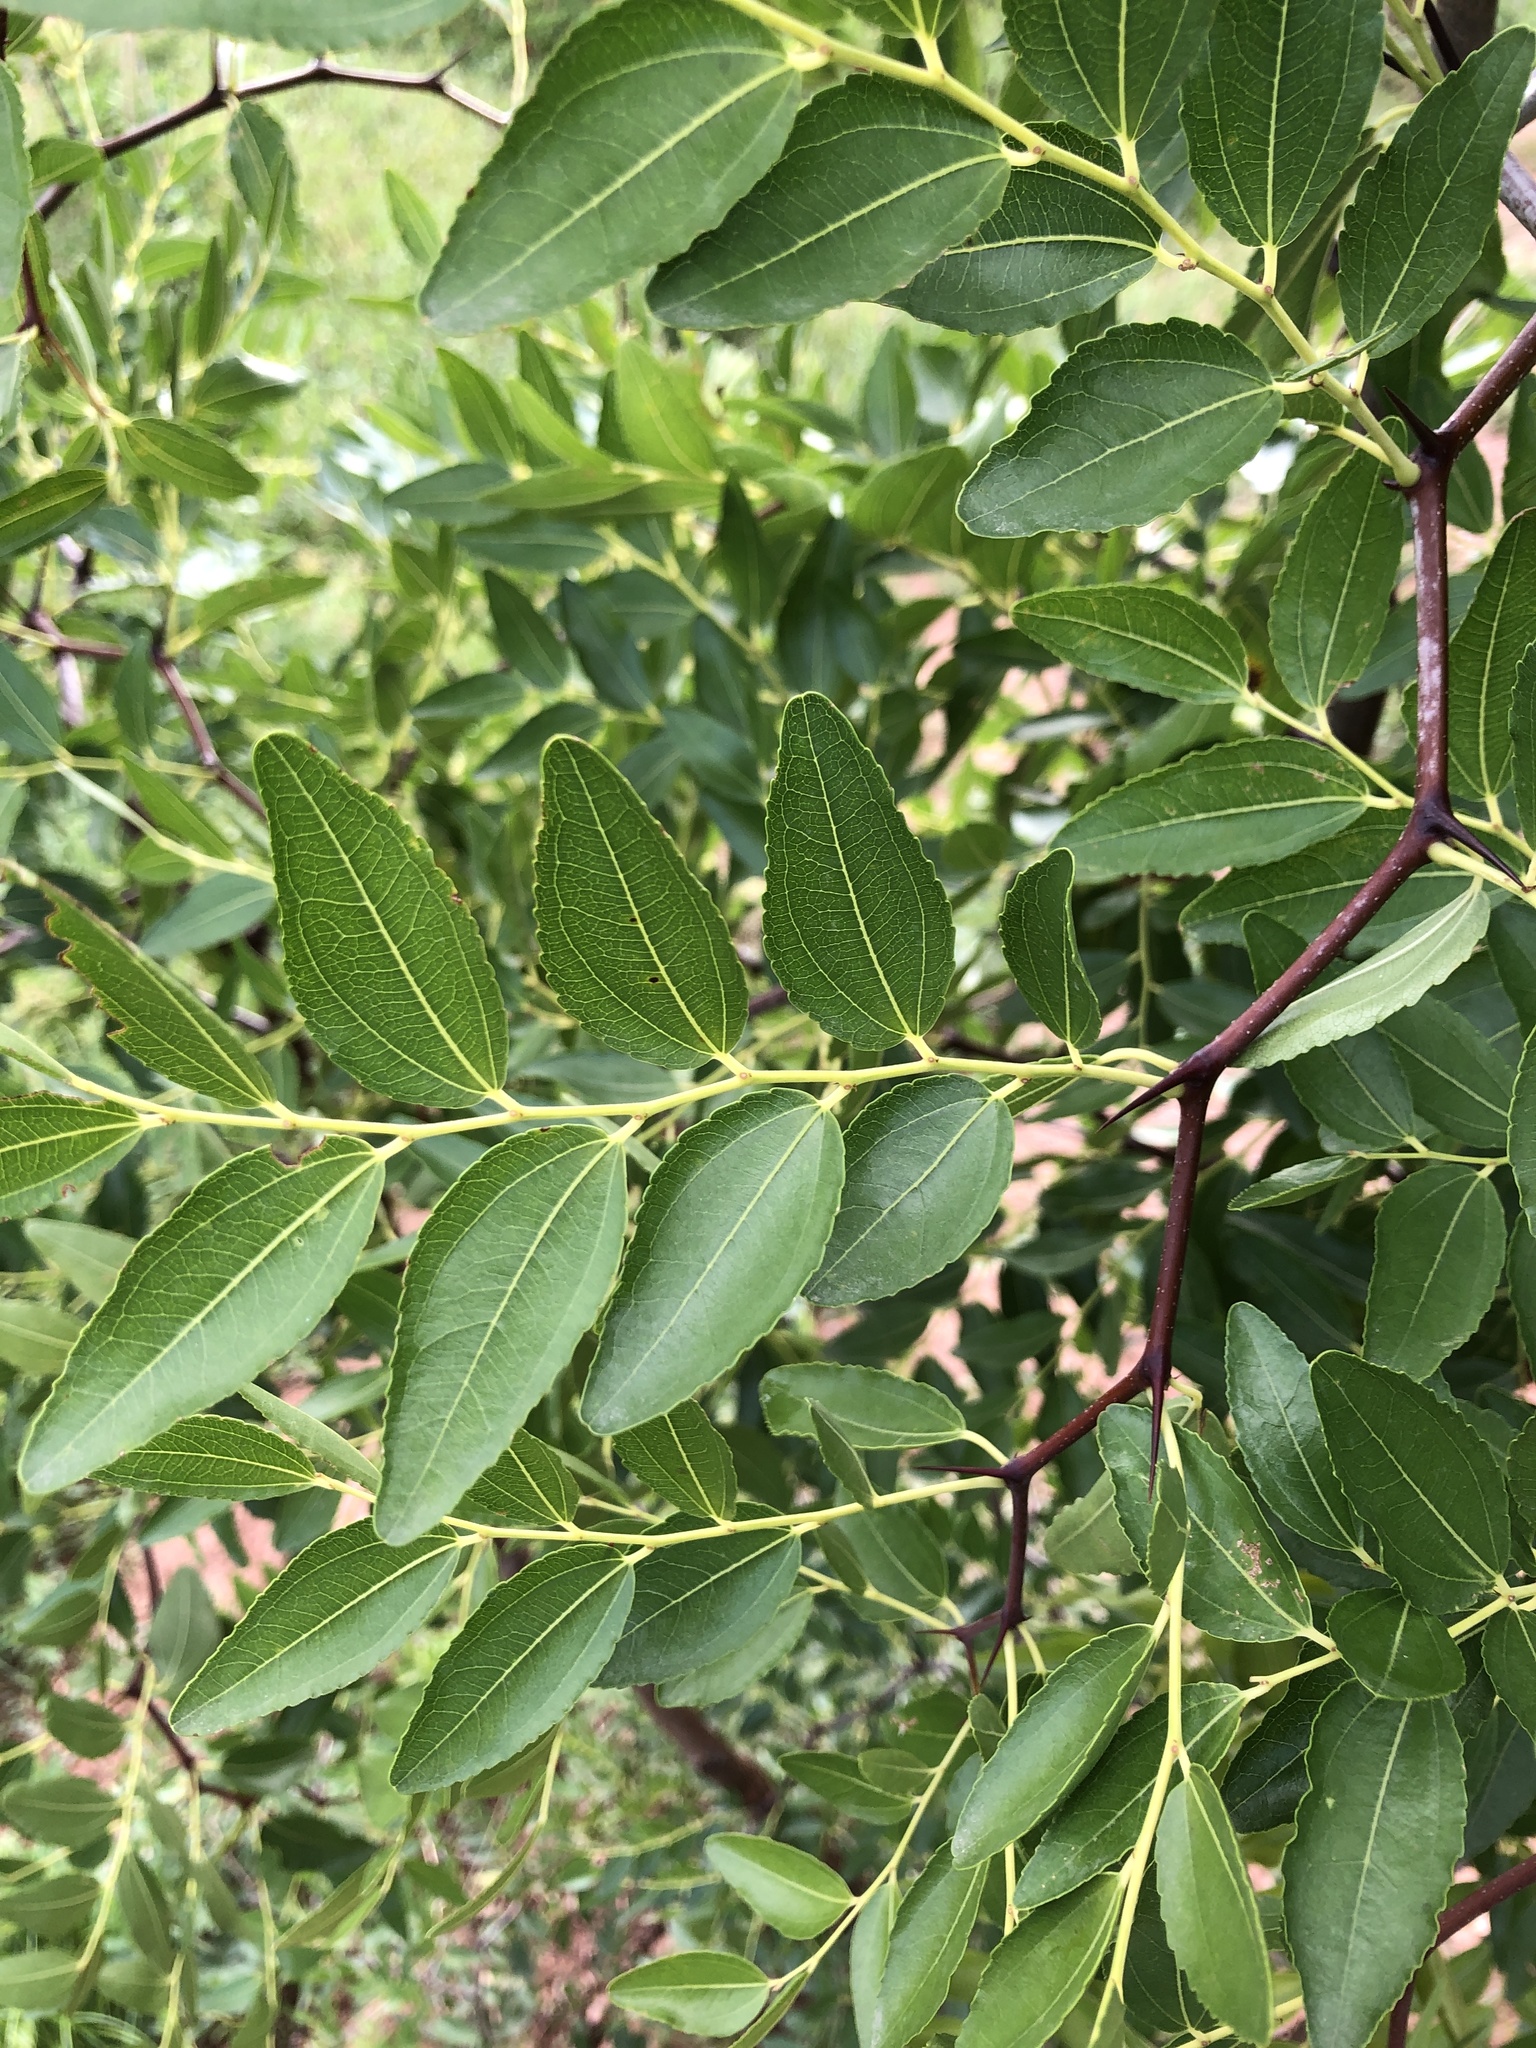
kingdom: Plantae
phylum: Tracheophyta
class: Magnoliopsida
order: Rosales
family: Rhamnaceae
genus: Ziziphus
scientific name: Ziziphus jujuba
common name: Jujube red date
